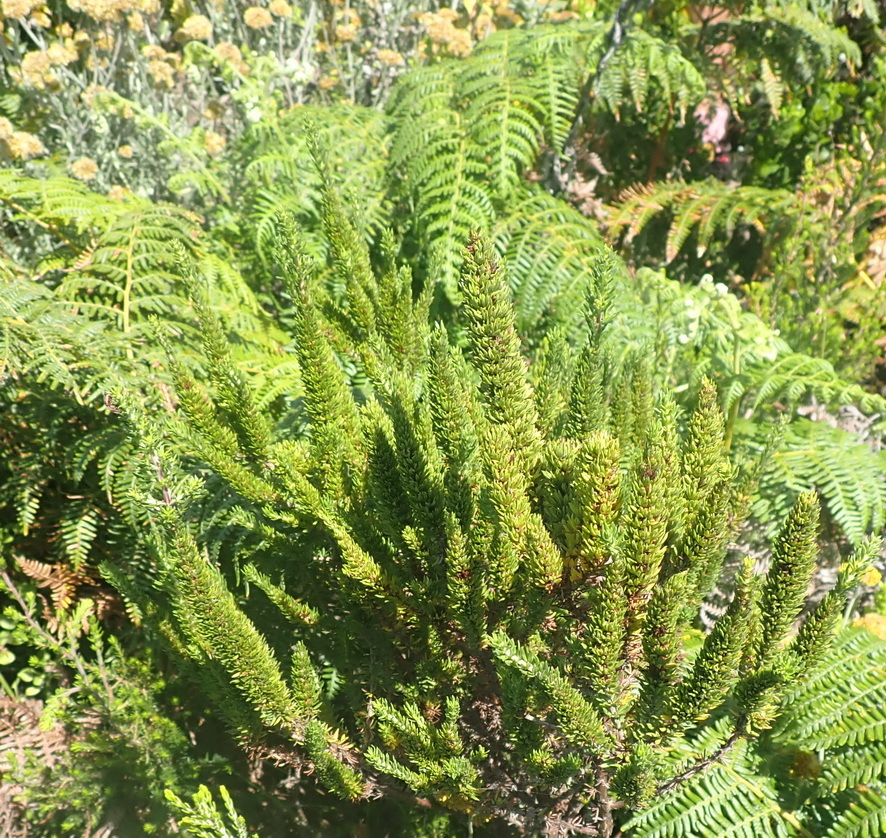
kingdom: Plantae
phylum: Tracheophyta
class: Magnoliopsida
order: Gentianales
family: Rubiaceae
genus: Anthospermum
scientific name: Anthospermum aethiopicum
